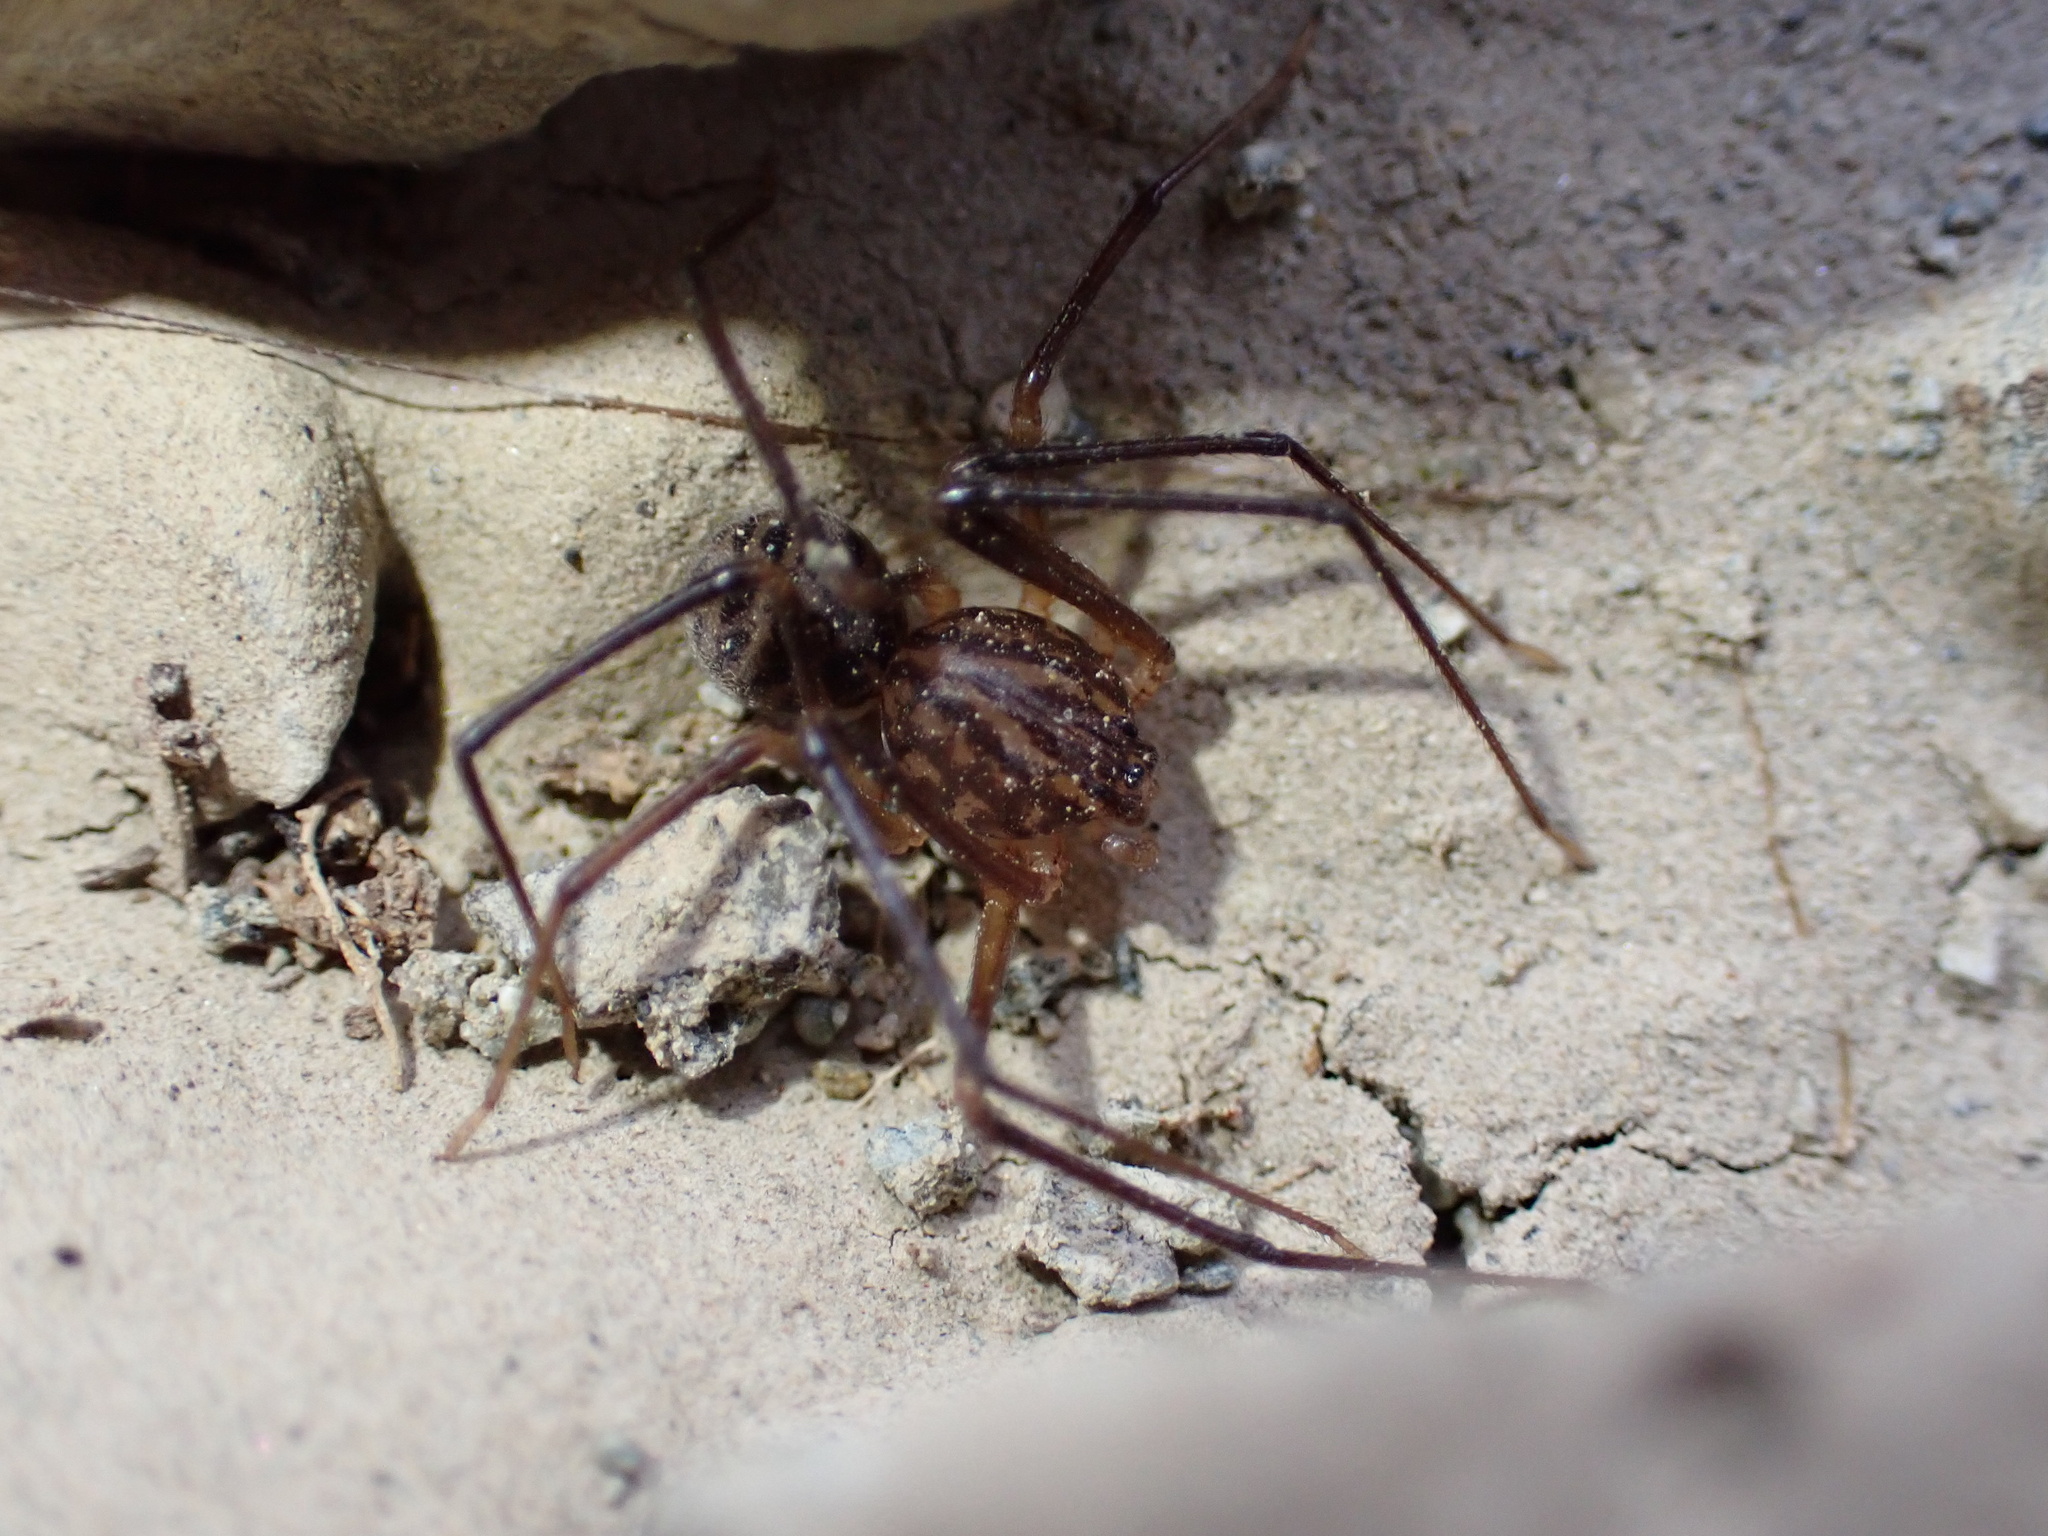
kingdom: Animalia
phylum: Arthropoda
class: Arachnida
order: Araneae
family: Scytodidae
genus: Scytodes
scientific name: Scytodes kumonga
